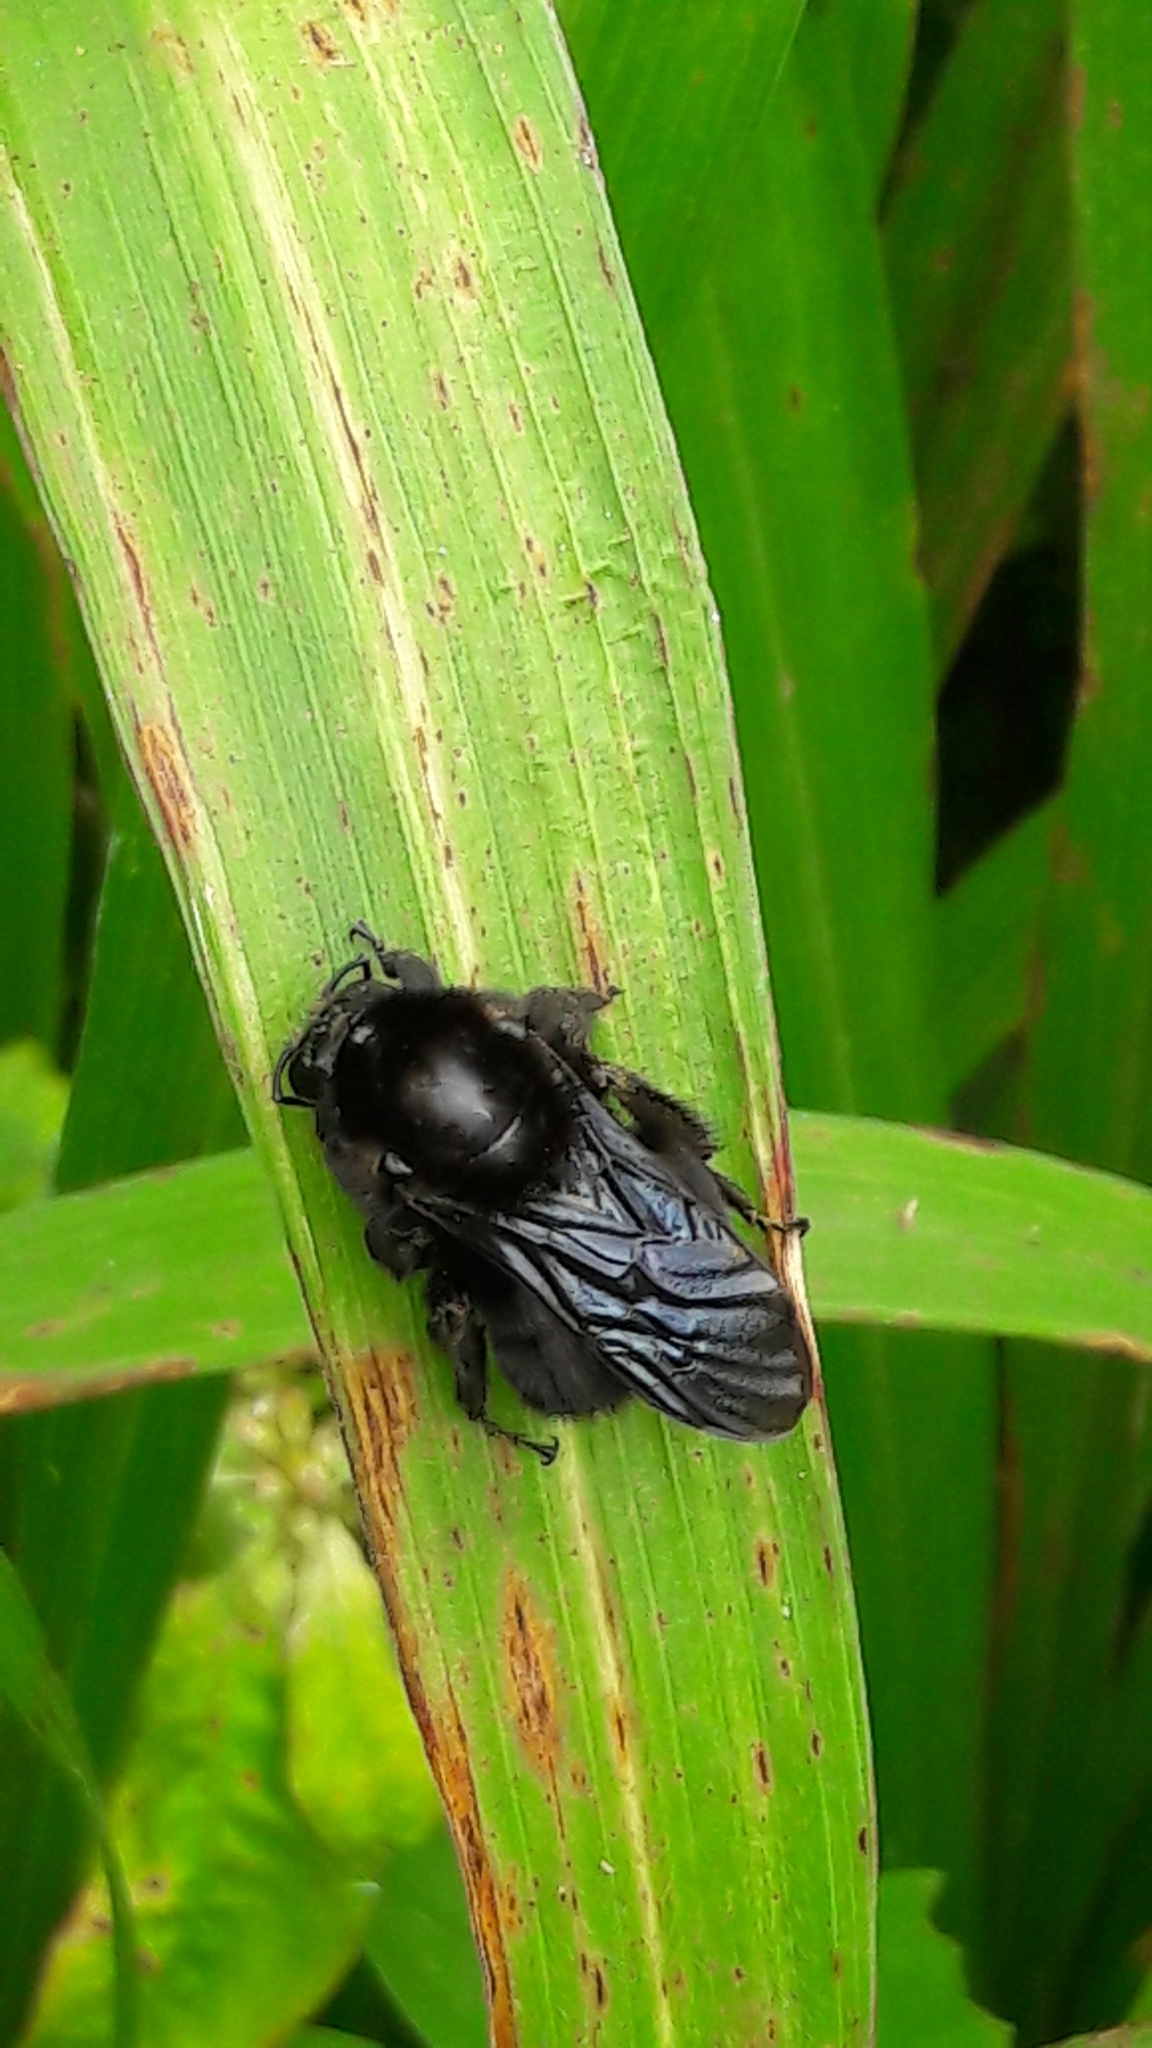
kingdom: Animalia
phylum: Arthropoda
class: Insecta
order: Hymenoptera
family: Apidae
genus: Bombus
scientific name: Bombus morio
